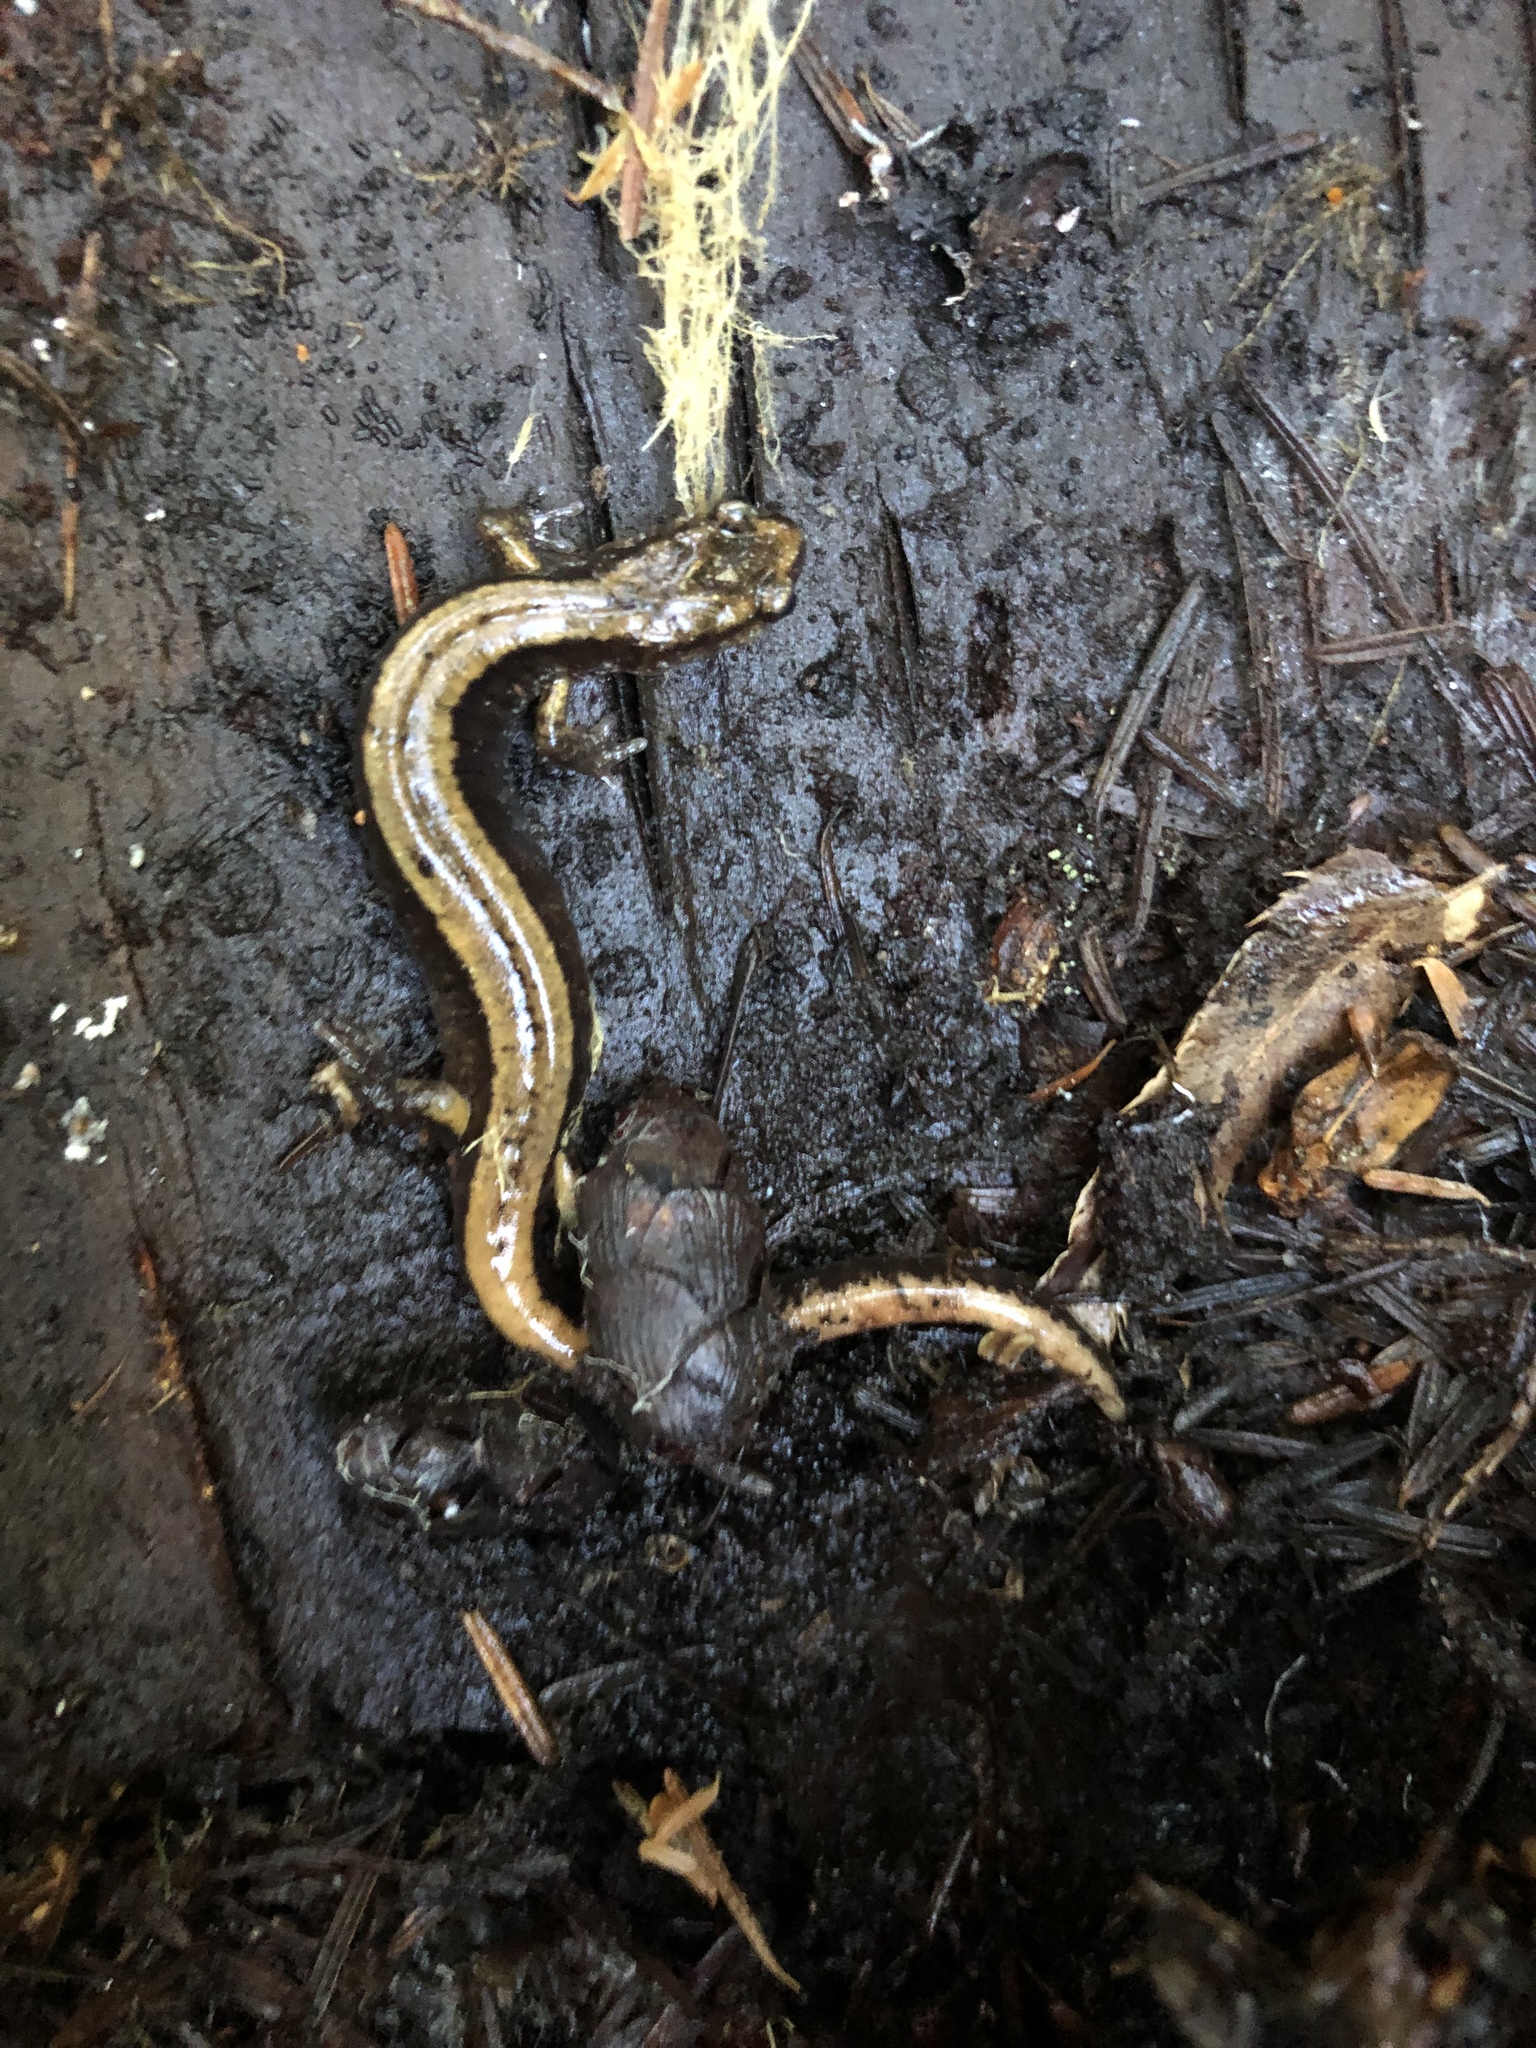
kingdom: Animalia
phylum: Chordata
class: Amphibia
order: Caudata
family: Plethodontidae
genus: Plethodon
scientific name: Plethodon vehiculum
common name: Western red-backed salamander
